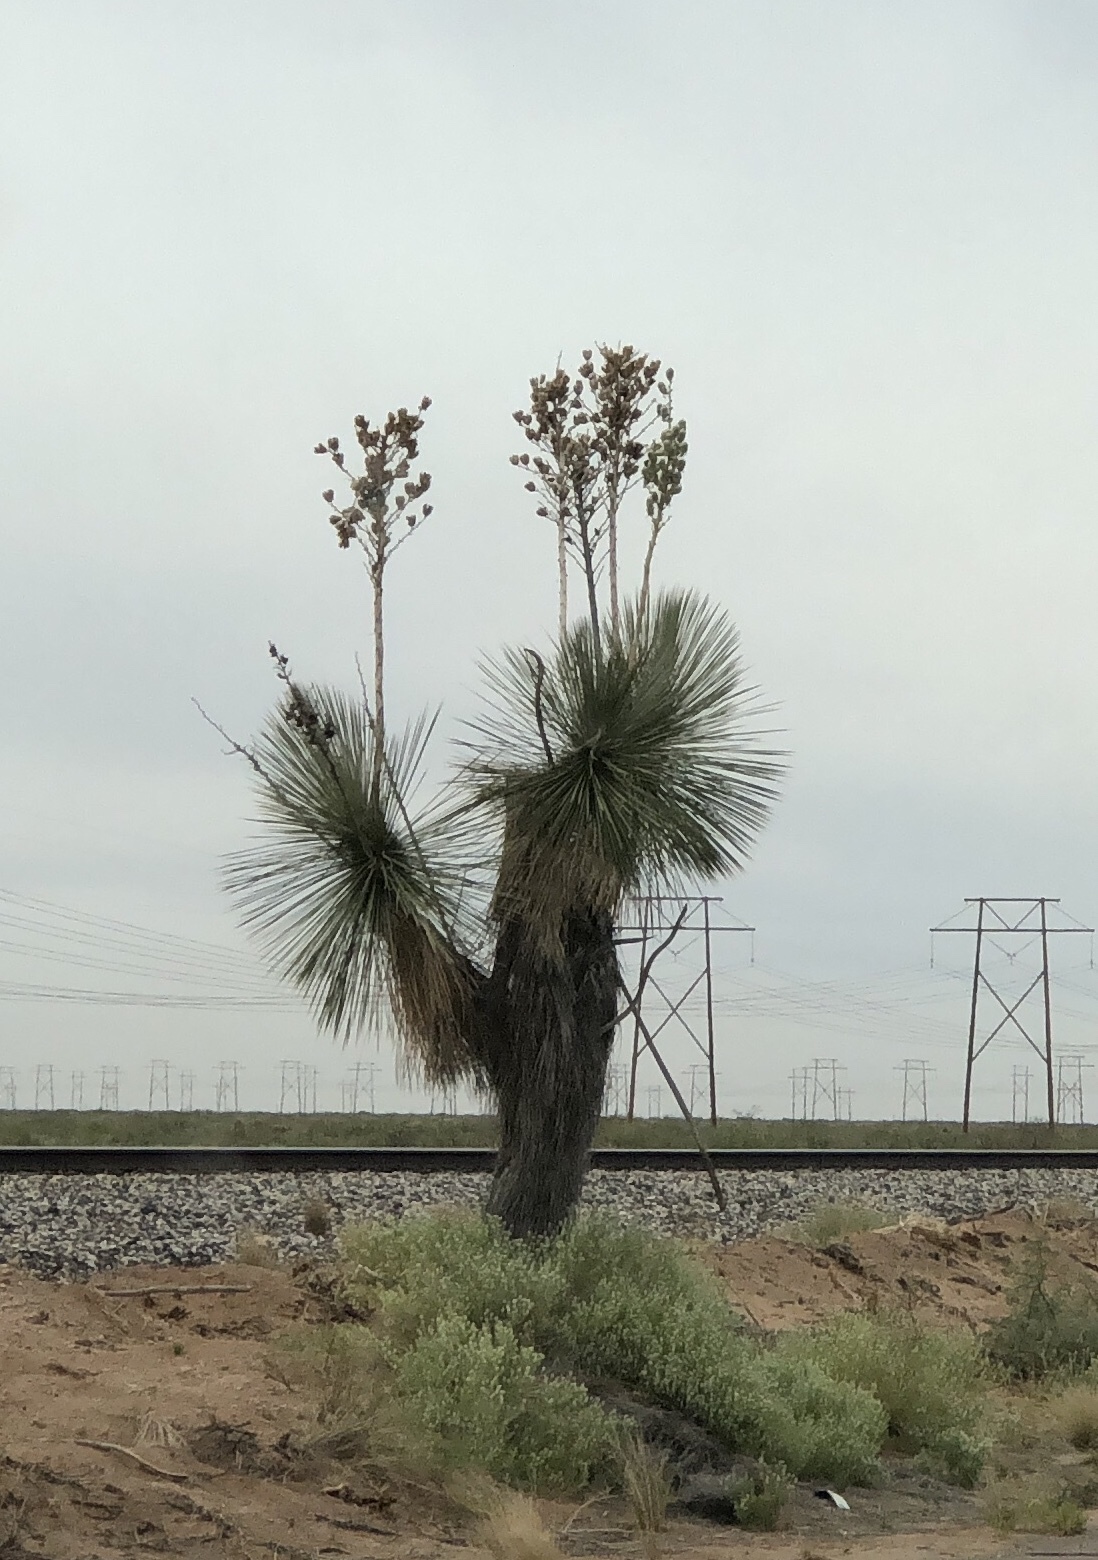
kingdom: Plantae
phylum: Tracheophyta
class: Liliopsida
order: Asparagales
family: Asparagaceae
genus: Yucca
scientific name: Yucca elata
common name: Palmella
